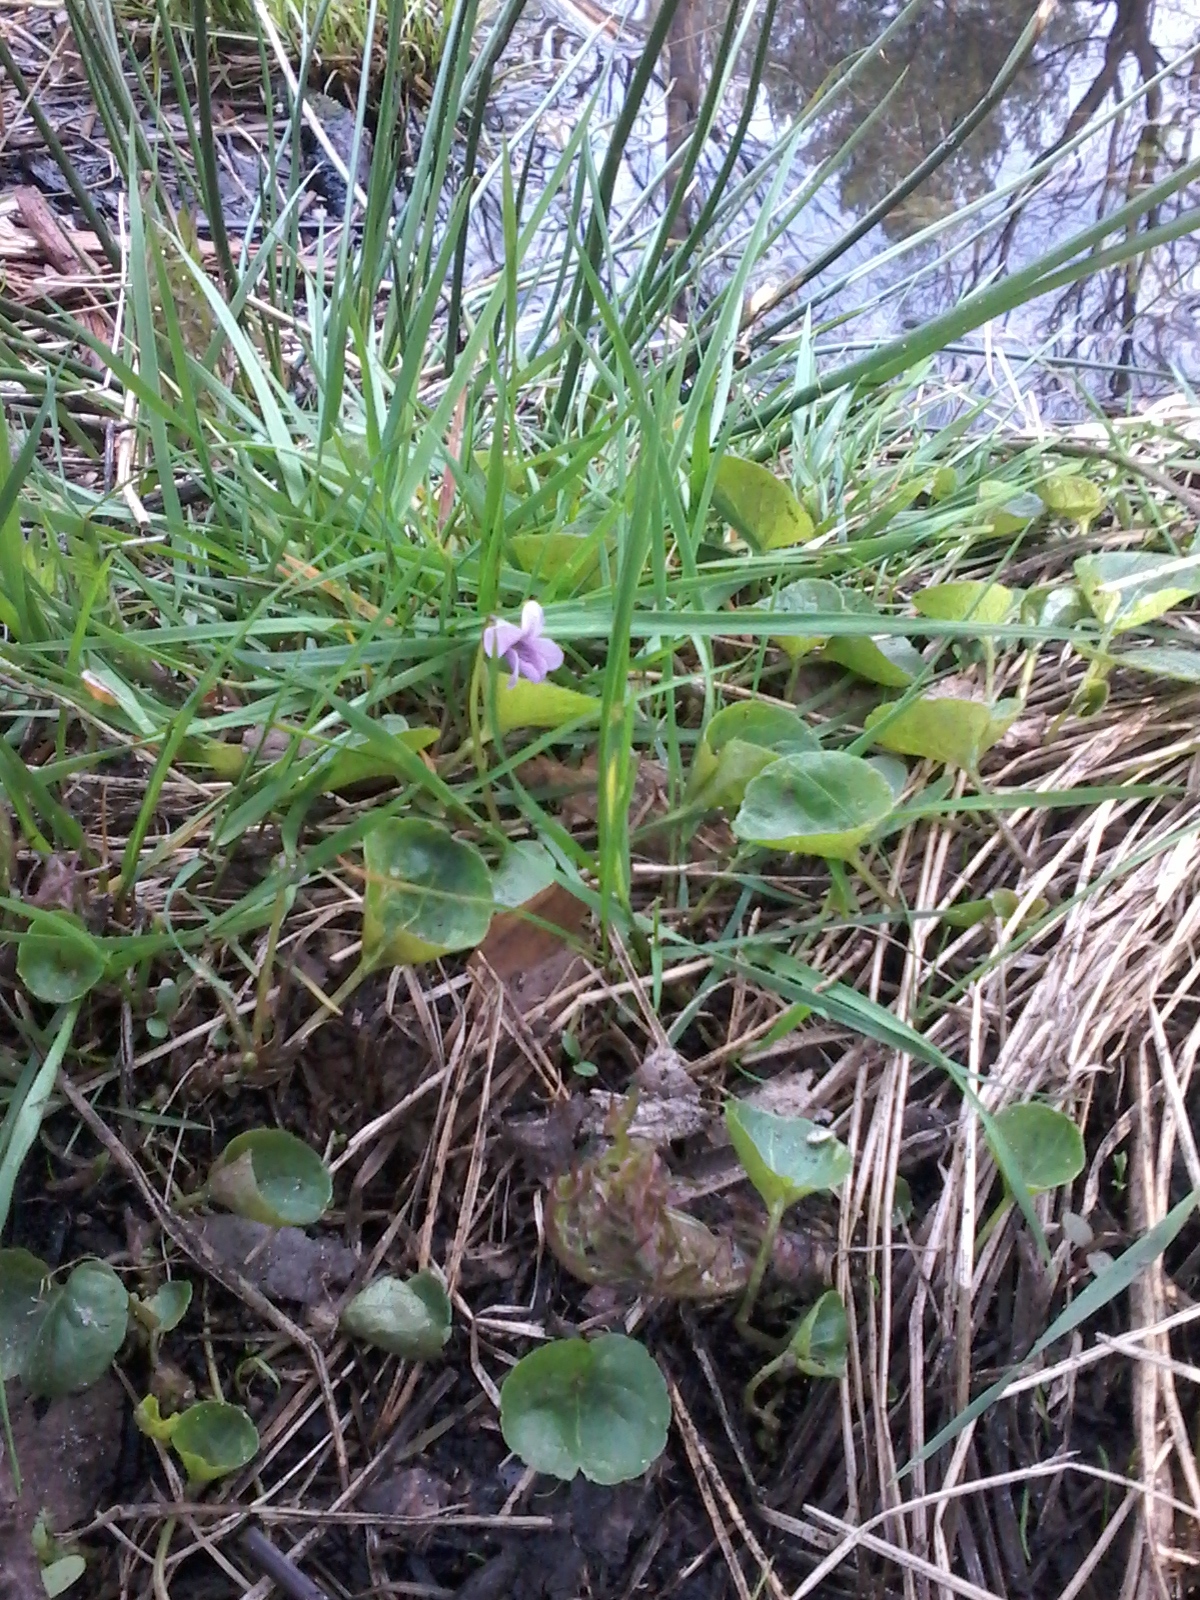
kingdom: Plantae
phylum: Tracheophyta
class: Magnoliopsida
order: Malpighiales
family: Violaceae
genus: Viola
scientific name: Viola palustris
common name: Marsh violet
